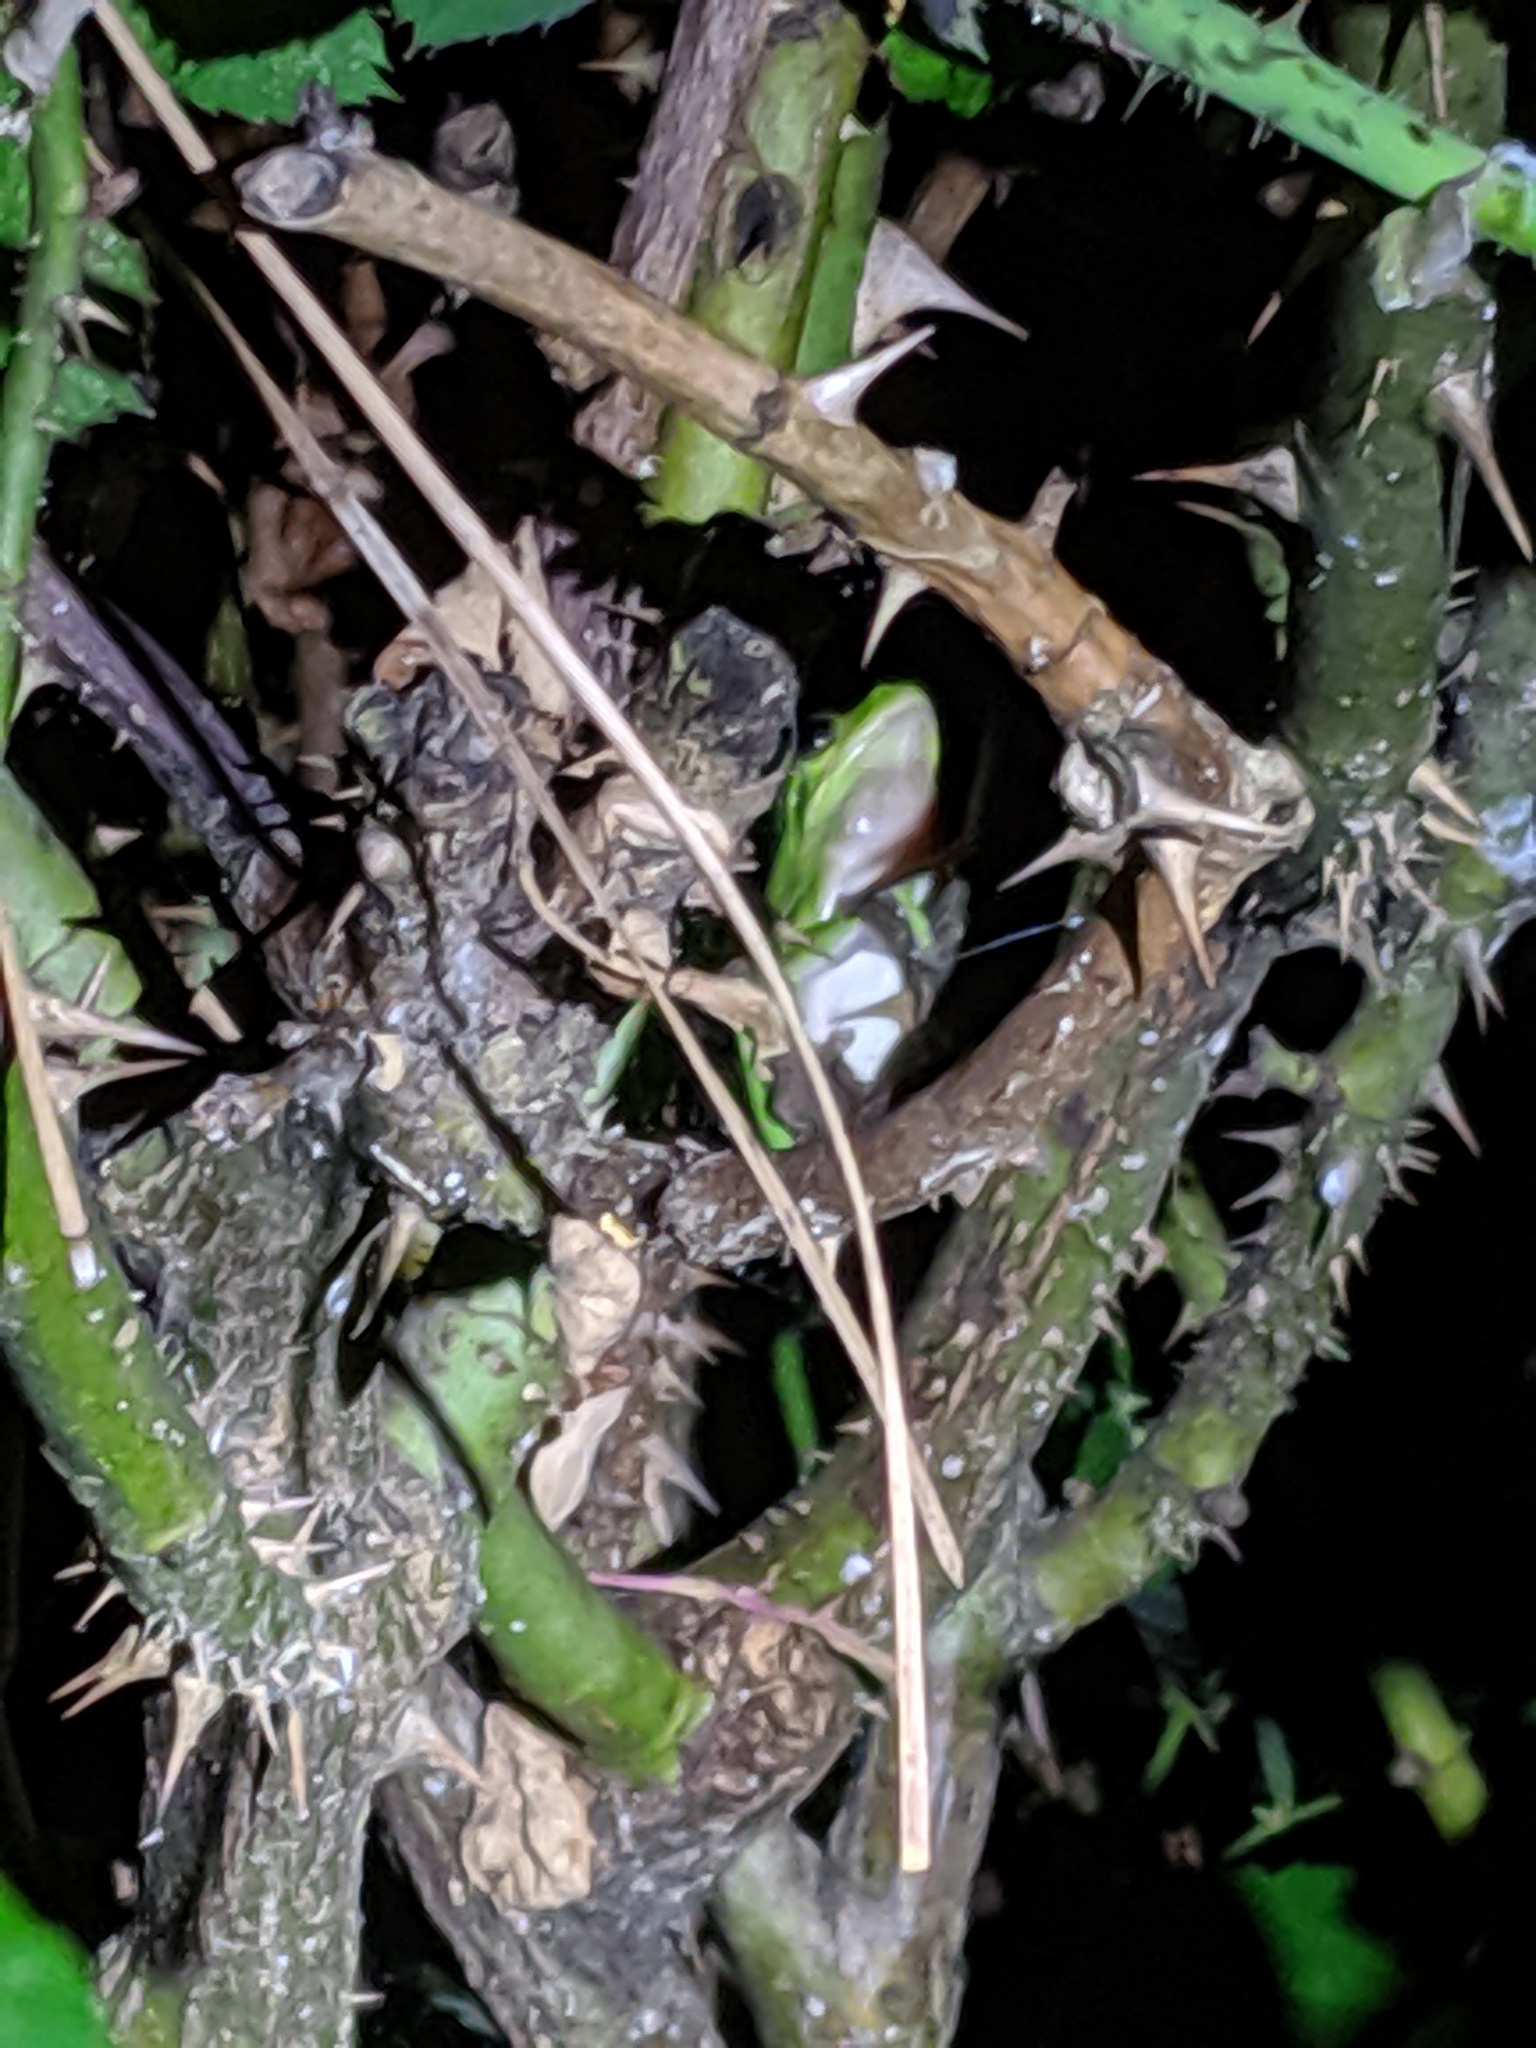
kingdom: Animalia
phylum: Chordata
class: Amphibia
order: Anura
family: Hylidae
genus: Dryophytes
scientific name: Dryophytes cinereus
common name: Green treefrog
